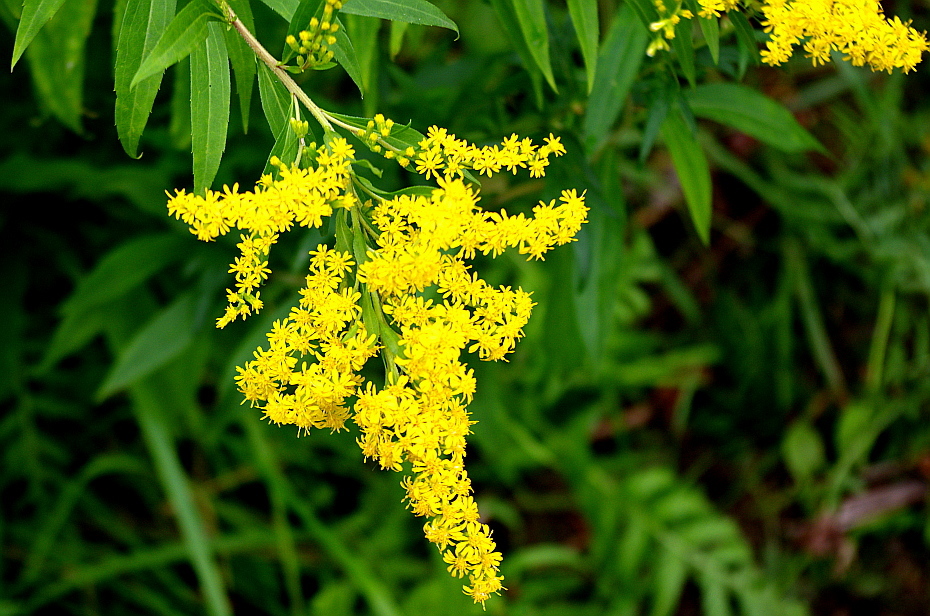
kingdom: Plantae
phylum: Tracheophyta
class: Magnoliopsida
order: Asterales
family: Asteraceae
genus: Solidago
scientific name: Solidago canadensis
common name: Canada goldenrod
